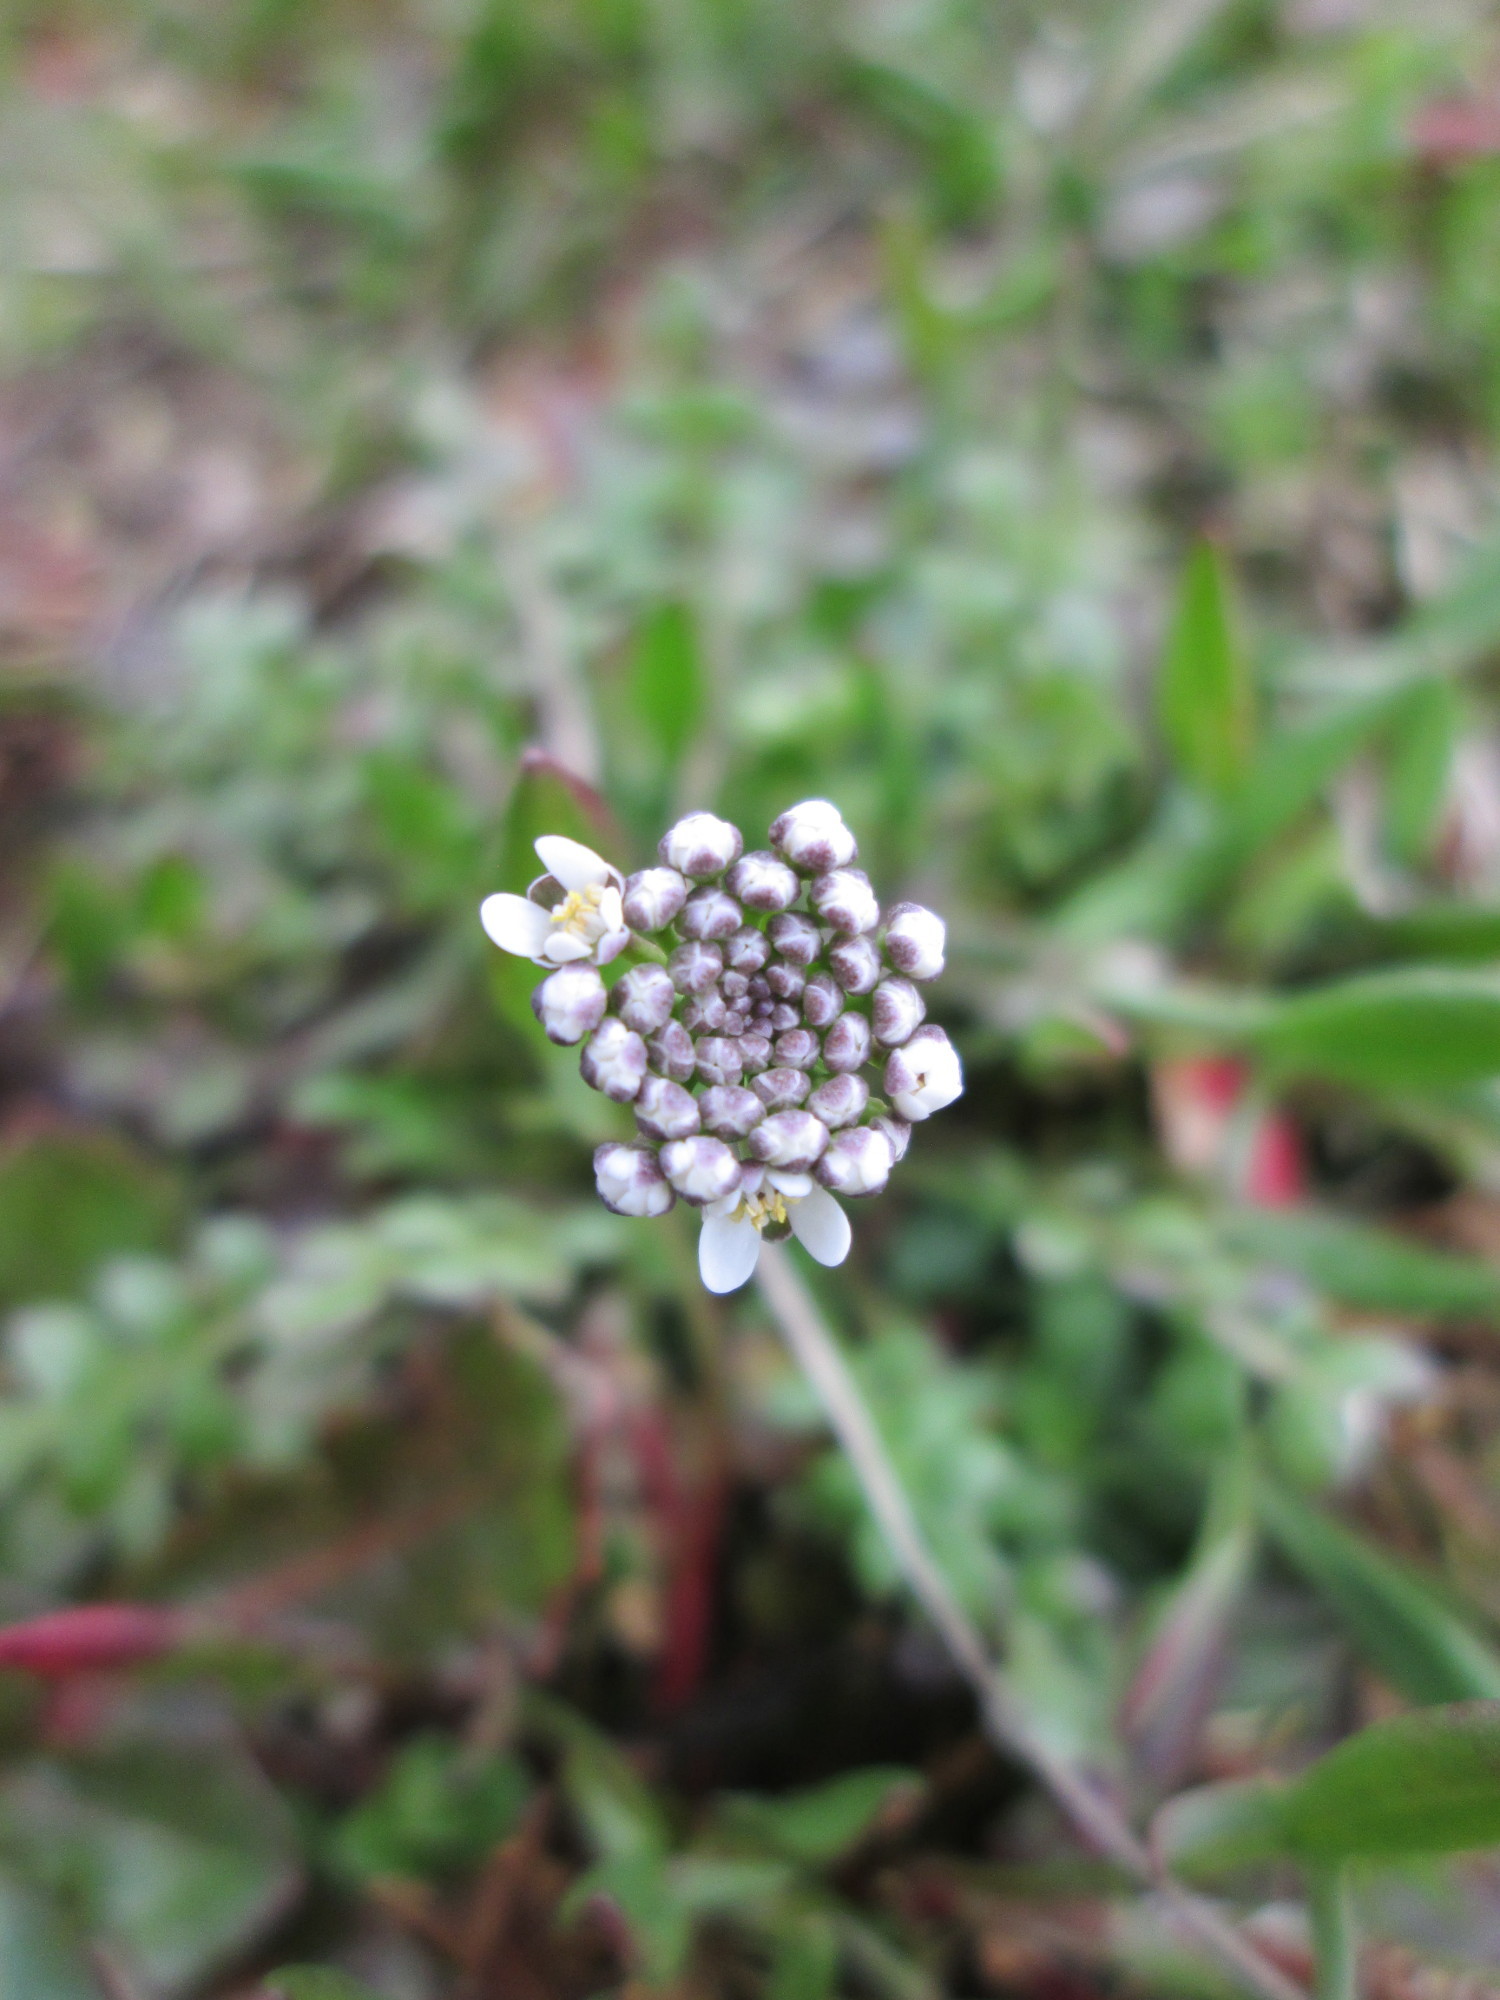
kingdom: Plantae
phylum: Tracheophyta
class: Magnoliopsida
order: Brassicales
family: Brassicaceae
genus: Teesdalia
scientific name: Teesdalia nudicaulis
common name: Shepherd's cress
